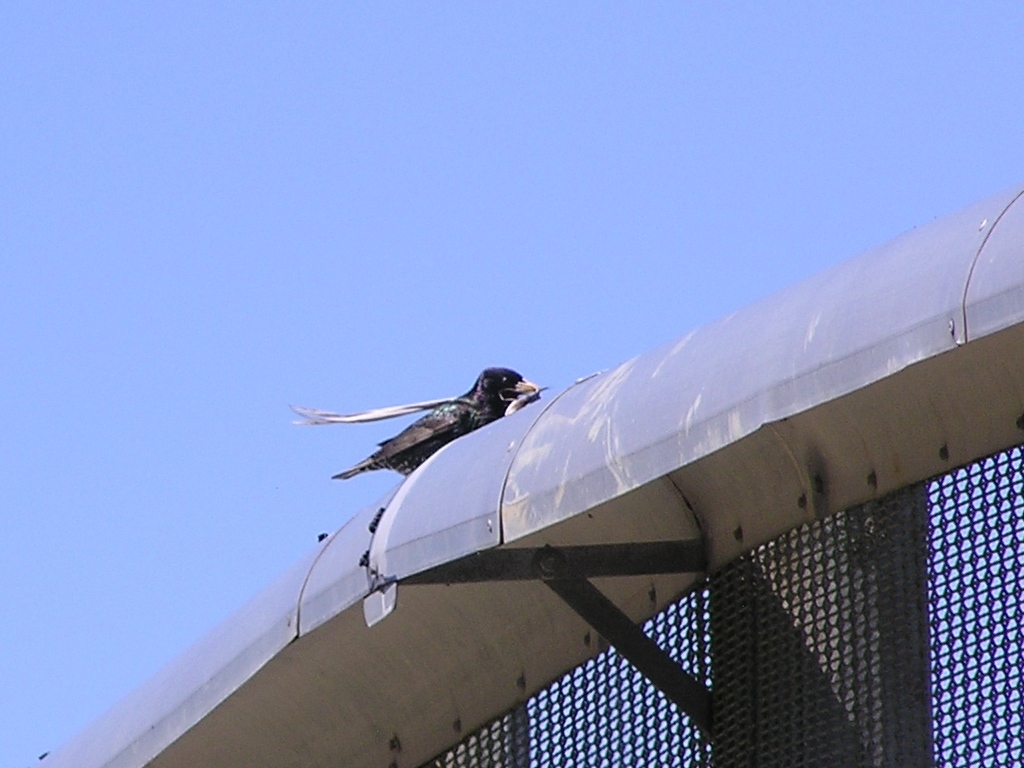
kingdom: Animalia
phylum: Chordata
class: Aves
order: Passeriformes
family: Sturnidae
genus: Sturnus
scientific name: Sturnus vulgaris
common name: Common starling
